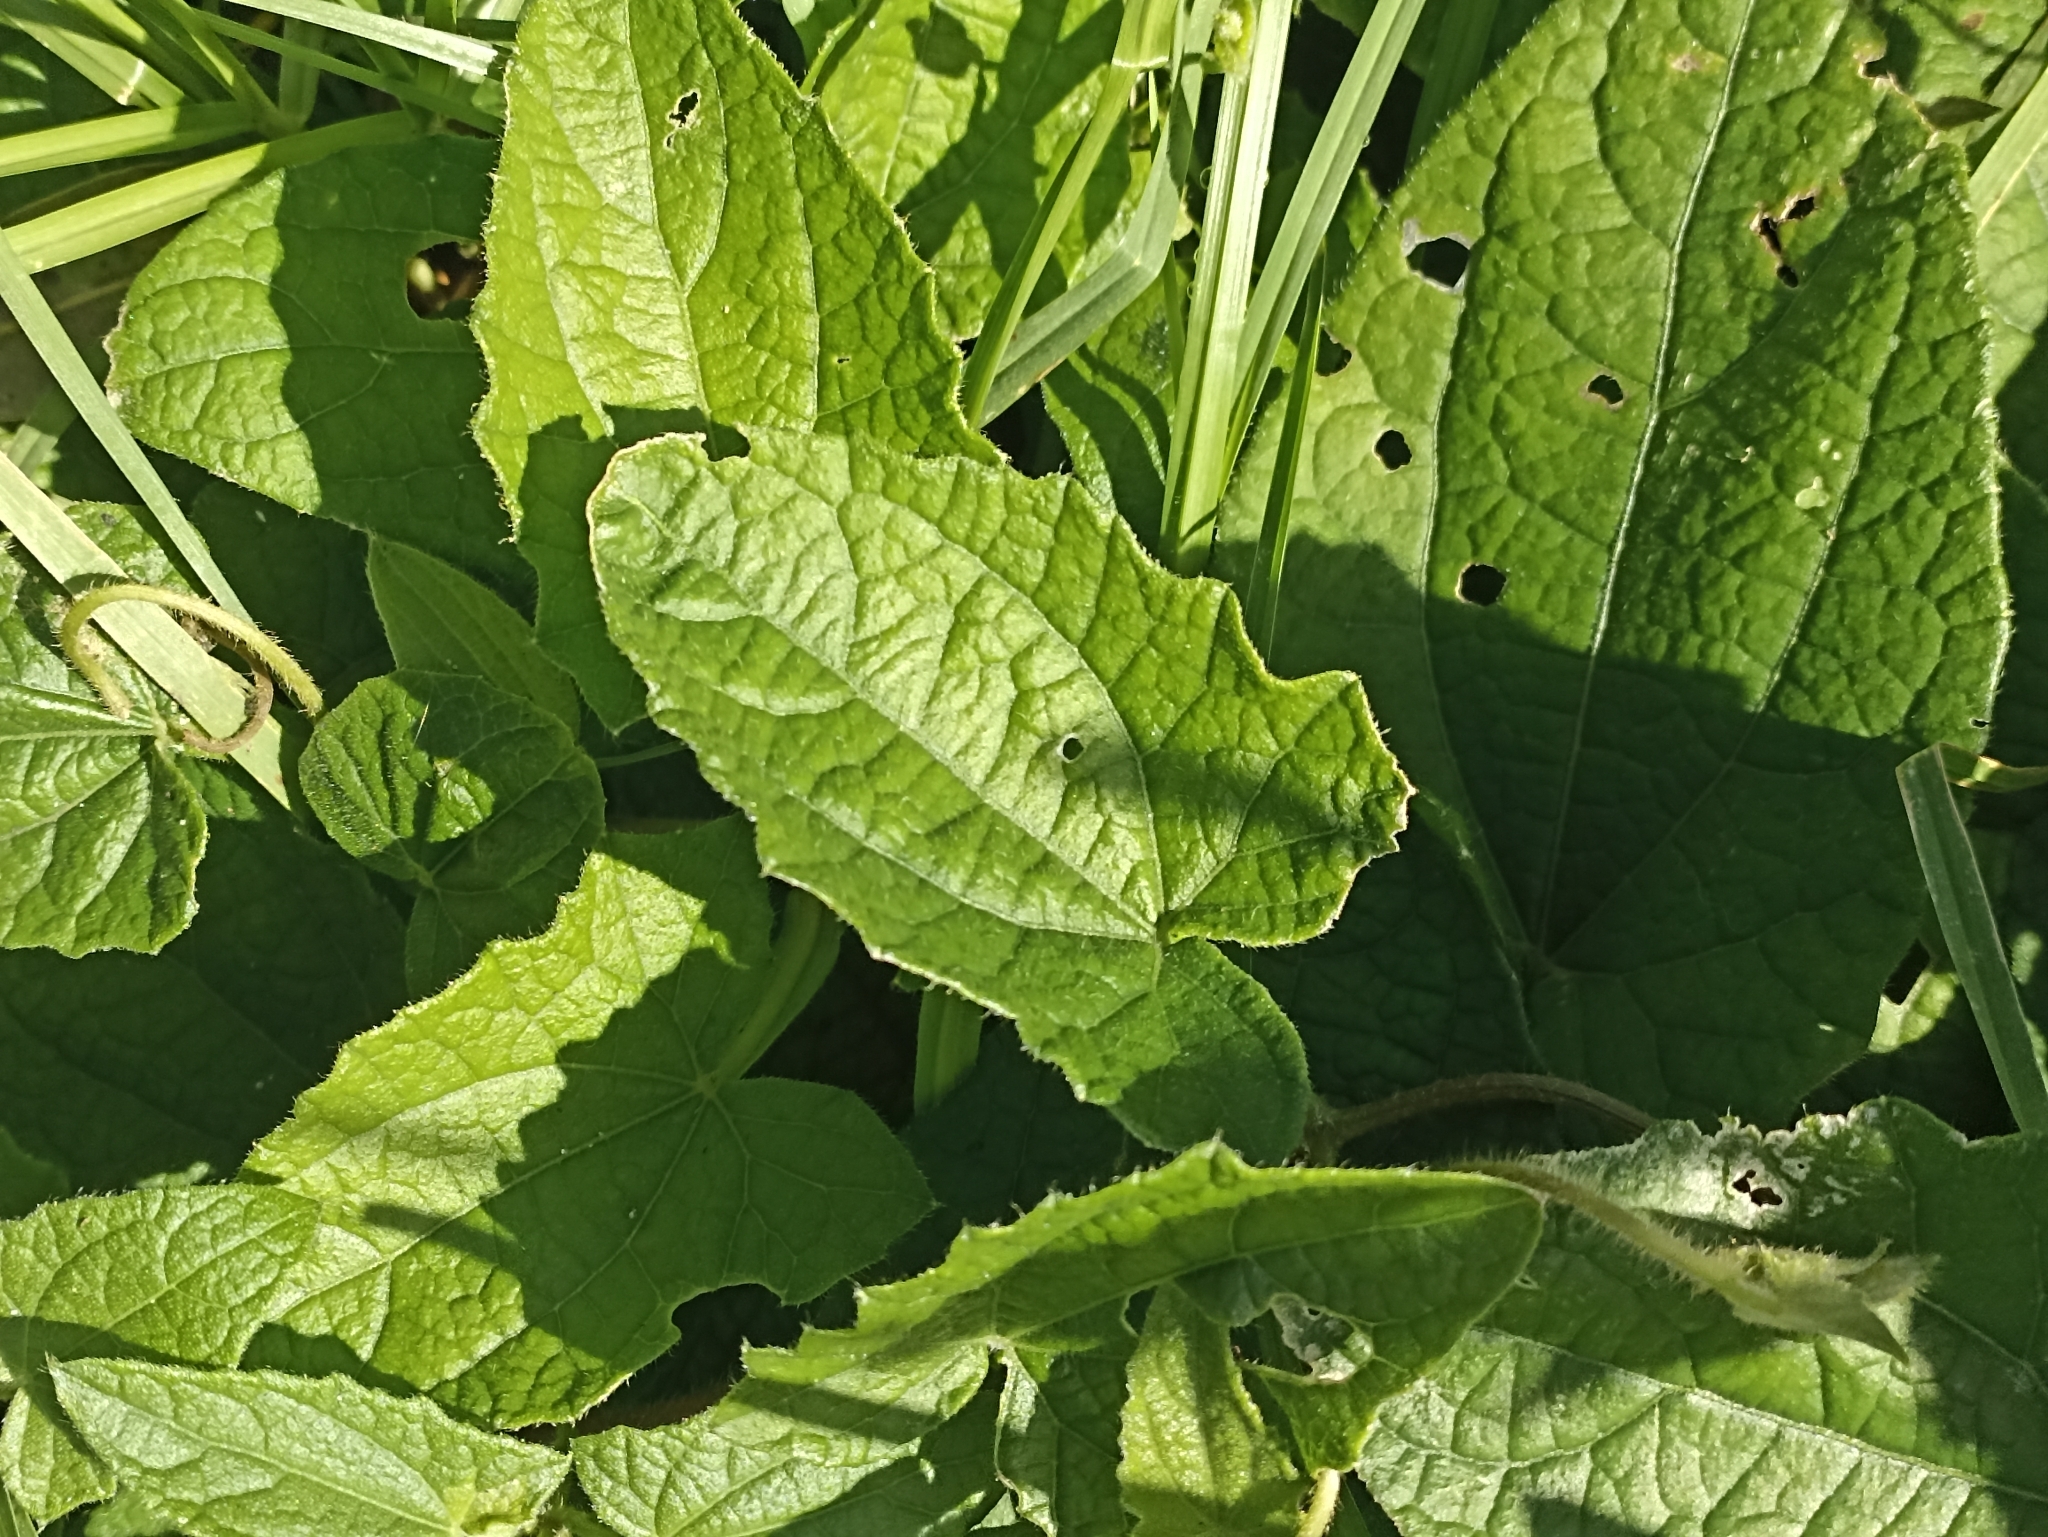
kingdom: Plantae
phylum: Tracheophyta
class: Magnoliopsida
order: Lamiales
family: Acanthaceae
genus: Thunbergia
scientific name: Thunbergia alata
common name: Blackeyed susan vine
